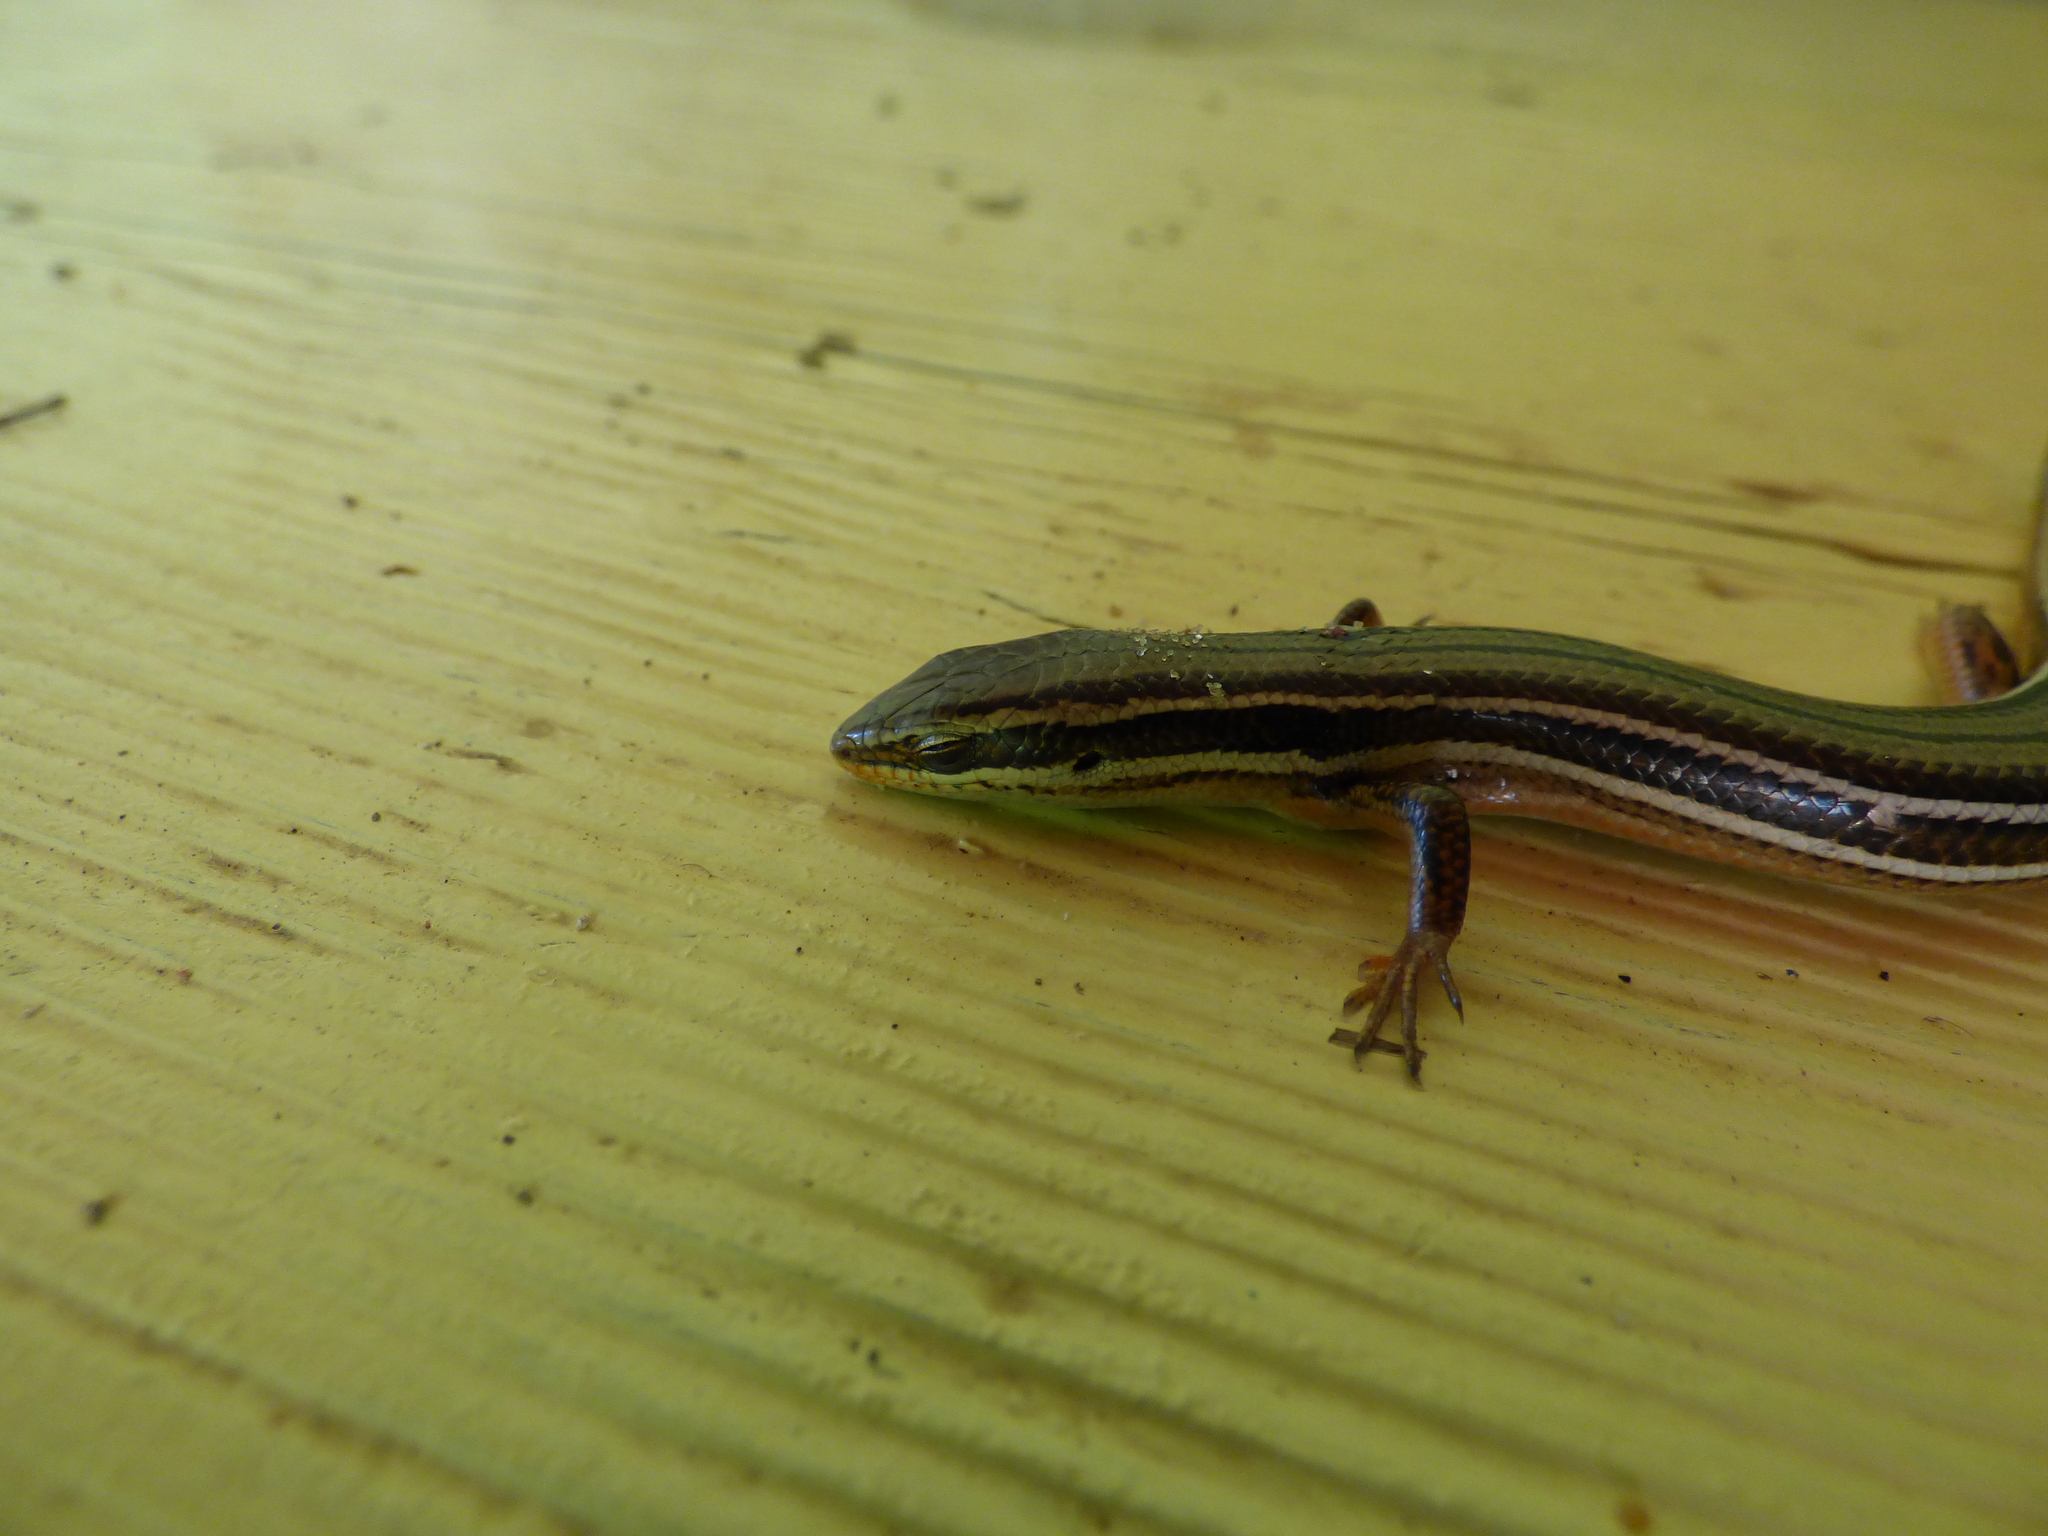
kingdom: Animalia
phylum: Chordata
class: Squamata
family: Scincidae
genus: Aspronema
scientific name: Aspronema dorsivittatum
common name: Paraguay mabuya
